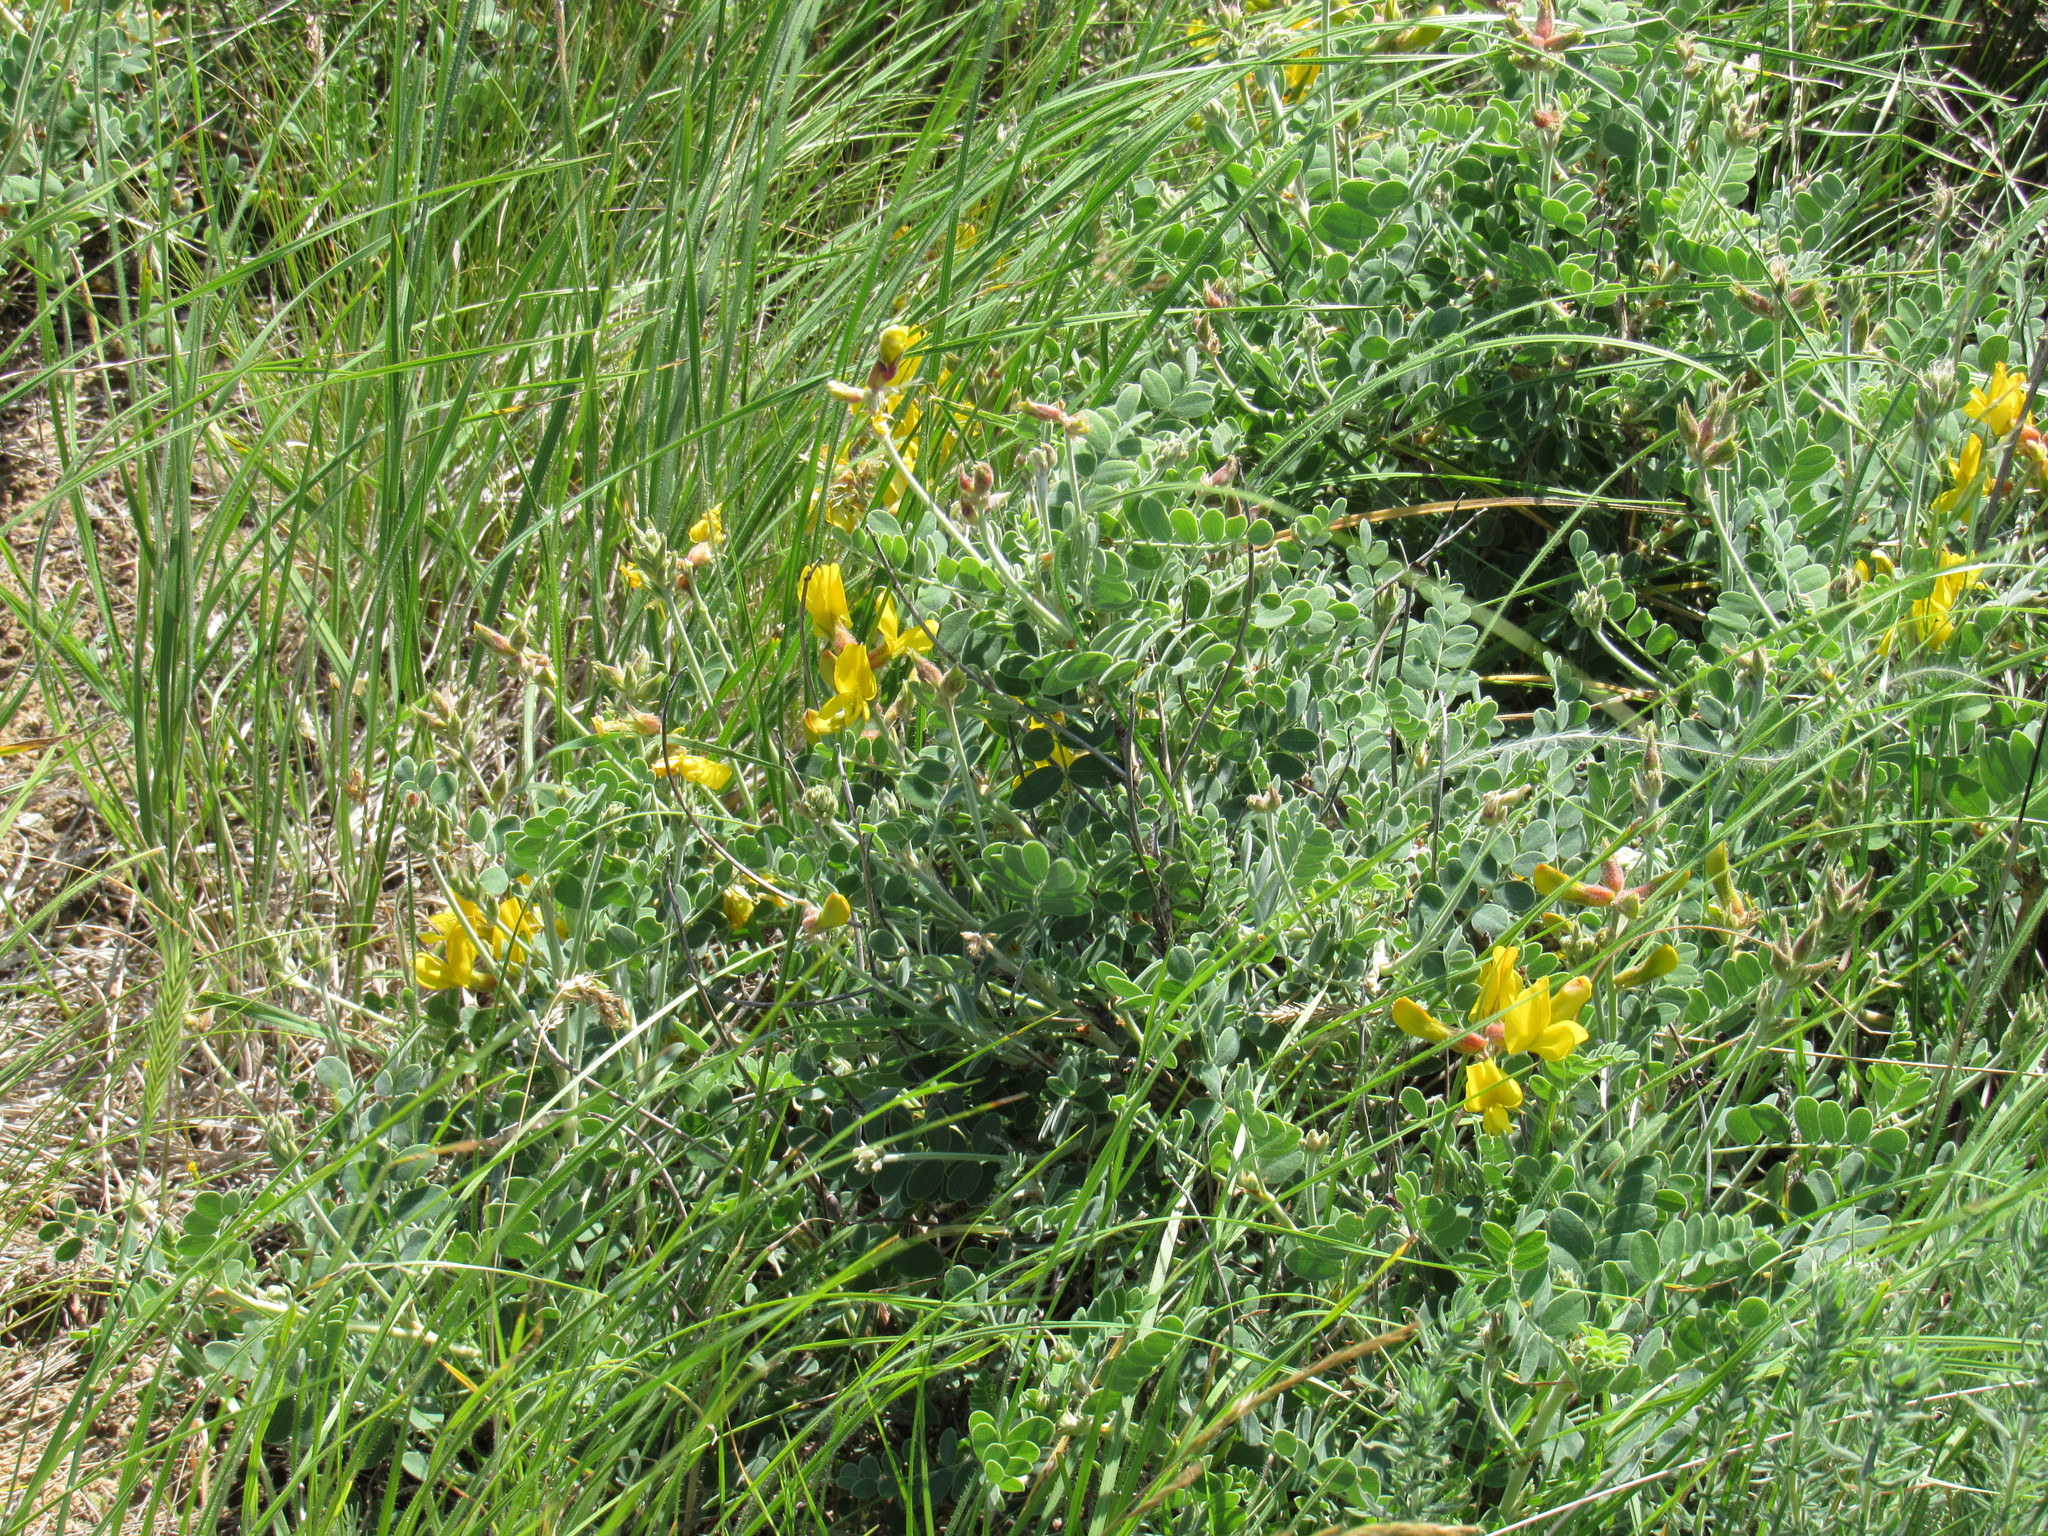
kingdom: Plantae
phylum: Tracheophyta
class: Magnoliopsida
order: Fabales
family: Fabaceae
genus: Calophaca
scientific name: Calophaca wolgarica
